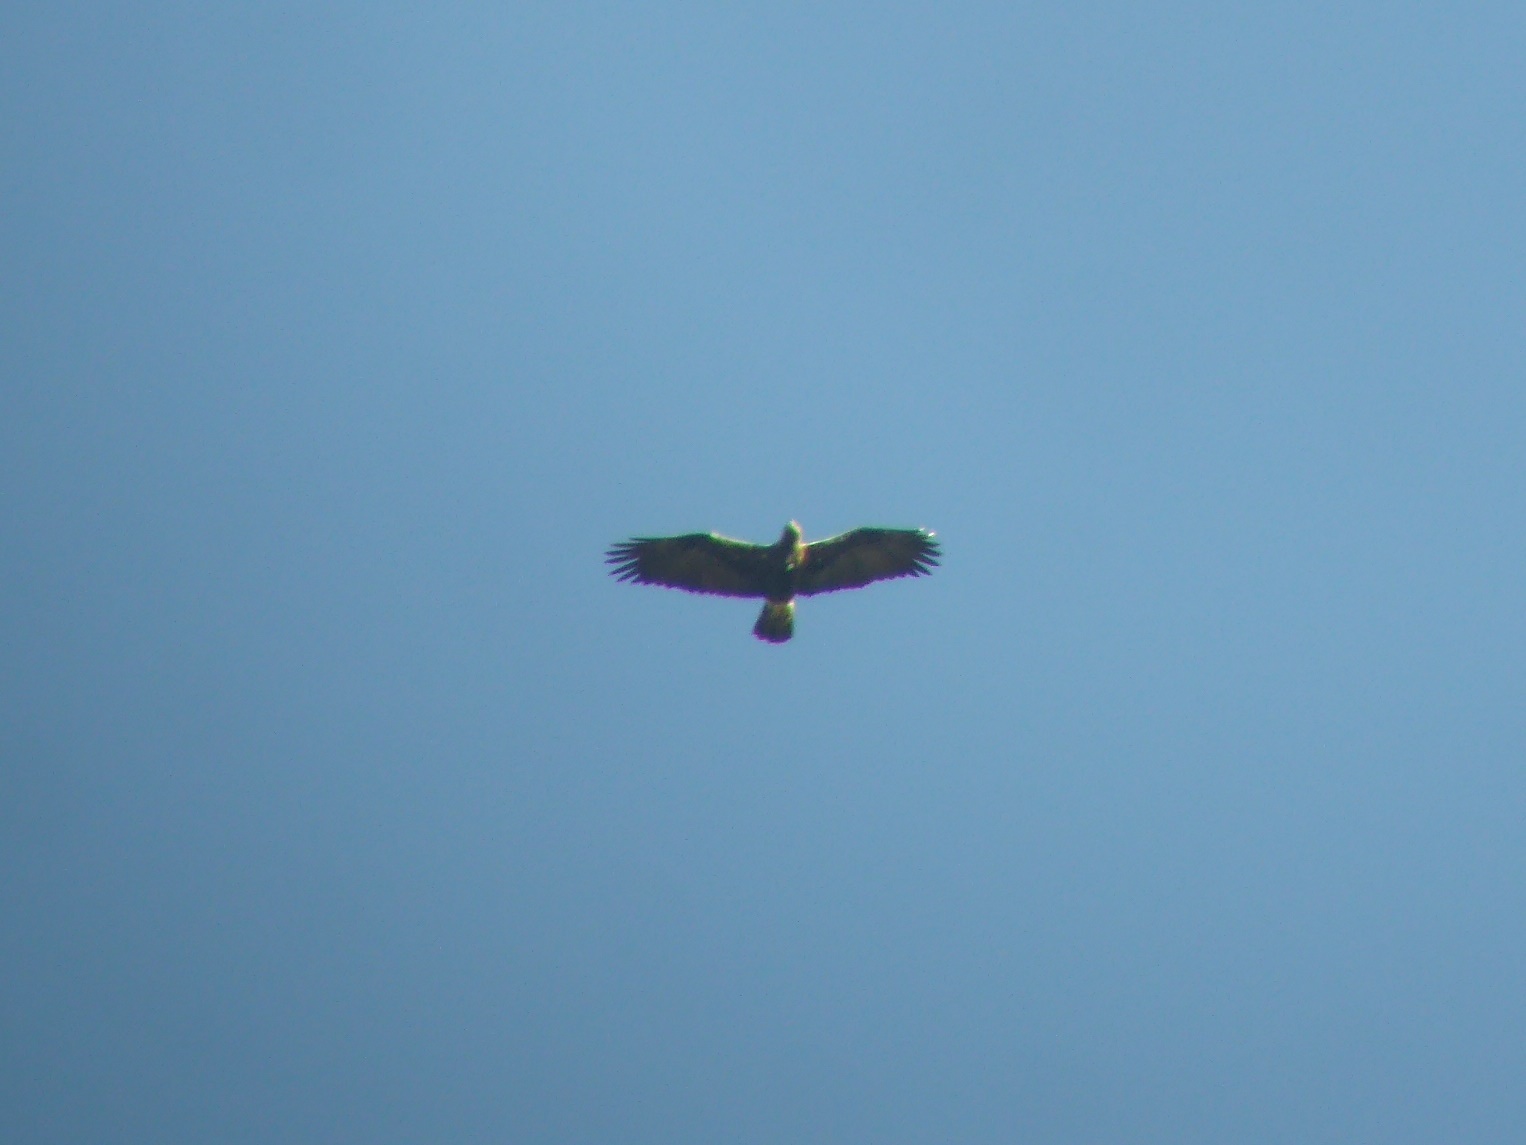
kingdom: Animalia
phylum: Chordata
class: Aves
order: Accipitriformes
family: Accipitridae
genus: Aquila
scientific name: Aquila adalberti
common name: Spanish imperial eagle
